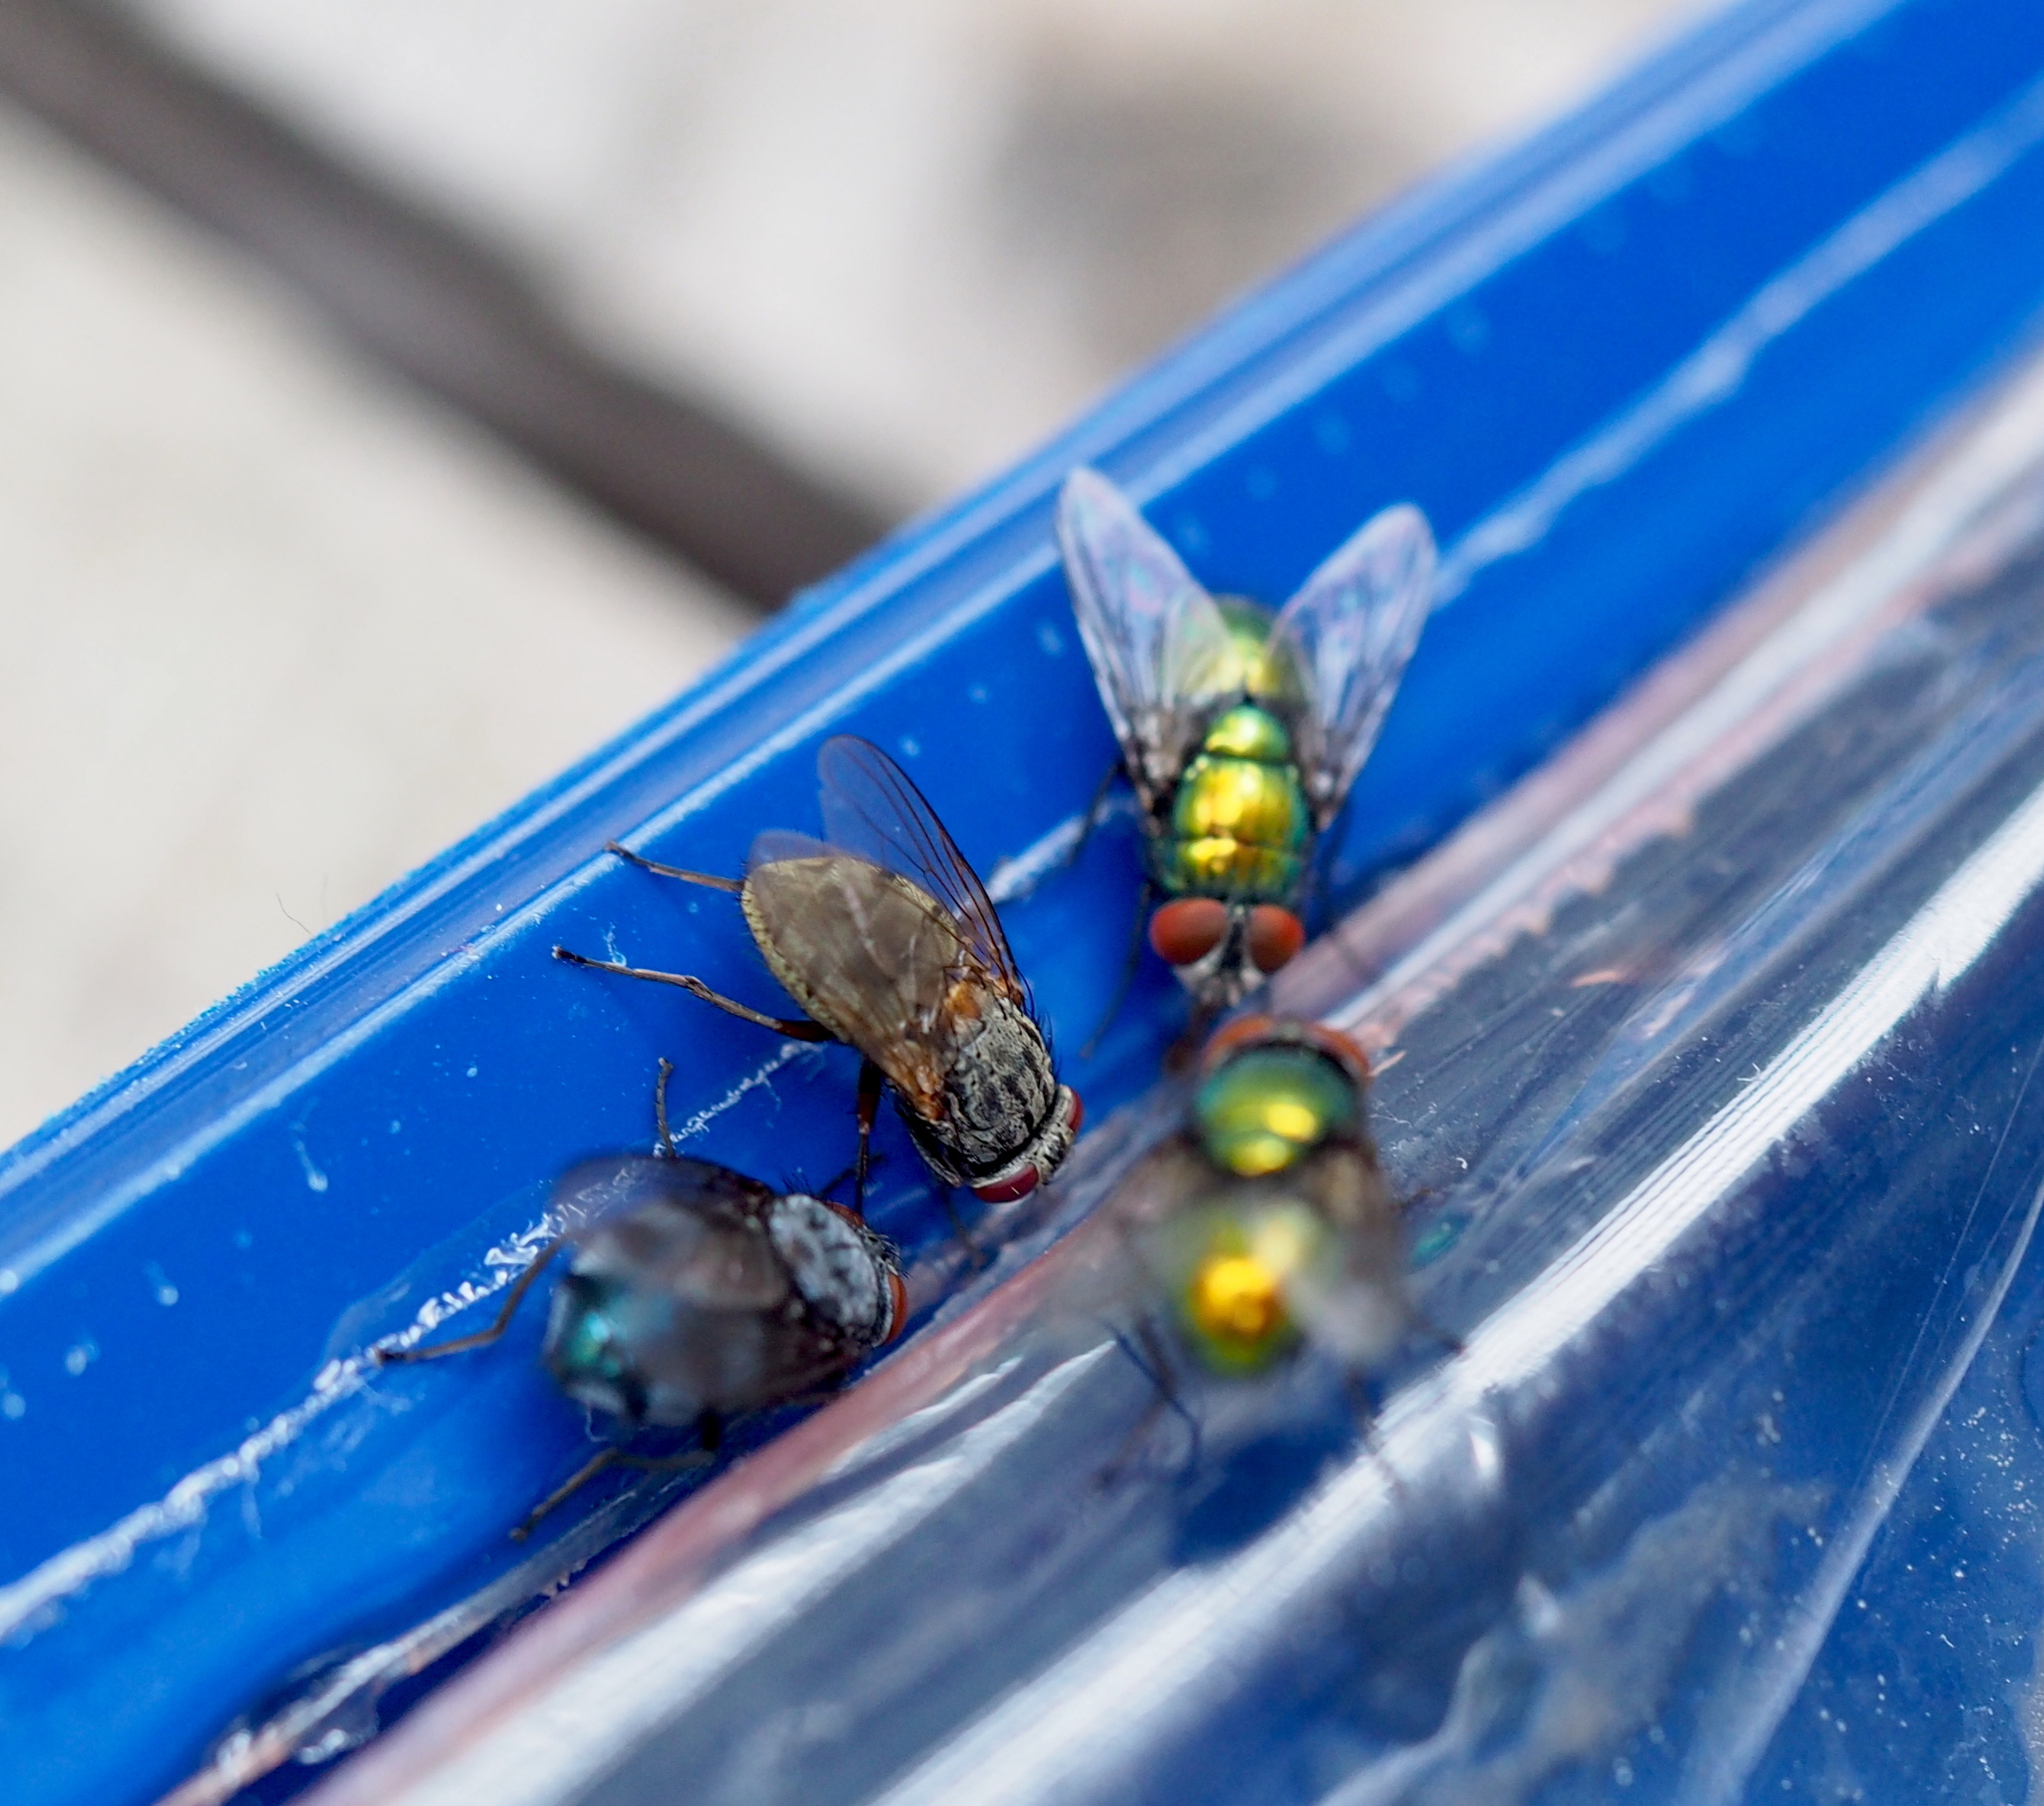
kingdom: Animalia
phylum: Arthropoda
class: Insecta
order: Diptera
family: Calliphoridae
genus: Calliphora
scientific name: Calliphora vicina
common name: Common blow flie
